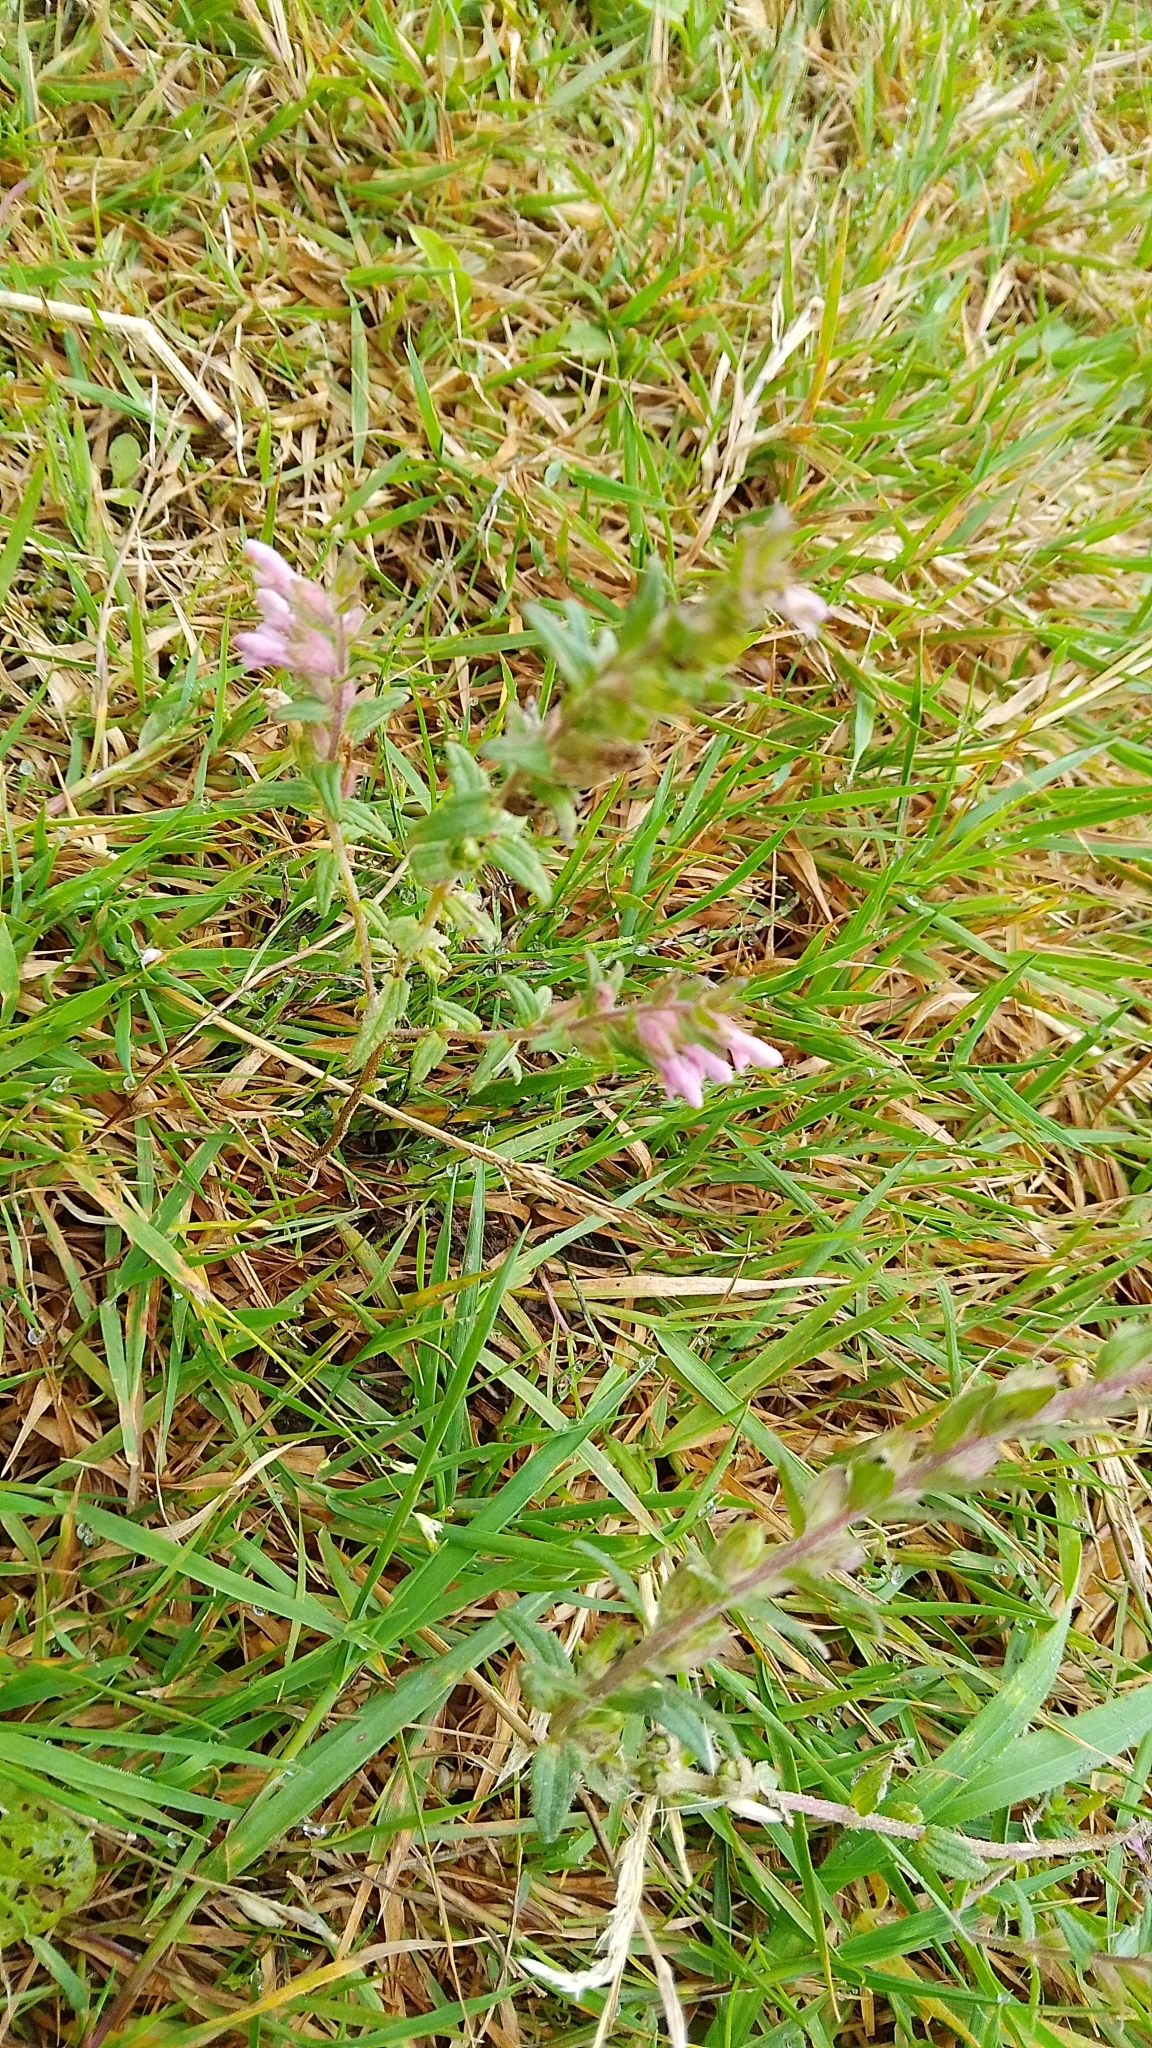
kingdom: Plantae
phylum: Tracheophyta
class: Magnoliopsida
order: Lamiales
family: Orobanchaceae
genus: Odontites
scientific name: Odontites vernus
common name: Red bartsia
